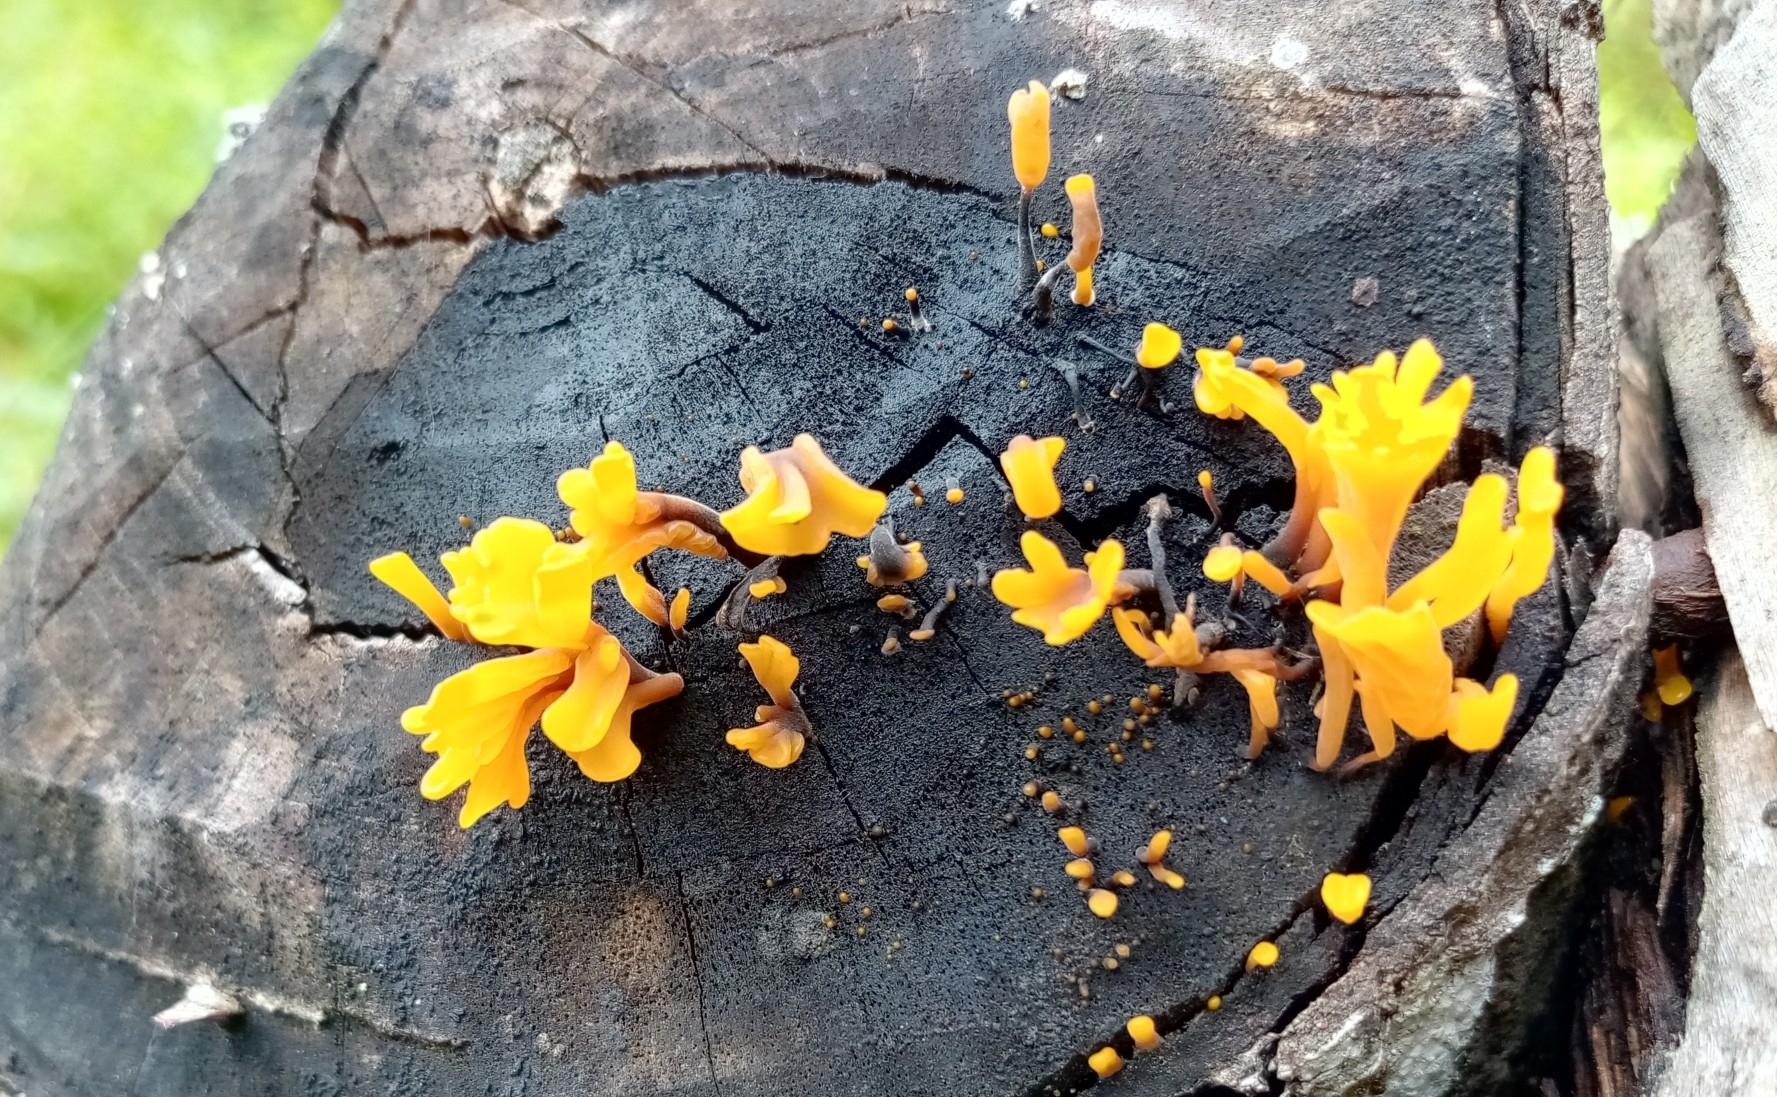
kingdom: Fungi
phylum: Basidiomycota
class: Dacrymycetes
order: Dacrymycetales
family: Dacrymycetaceae
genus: Dacrymyces
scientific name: Dacrymyces spathularius
